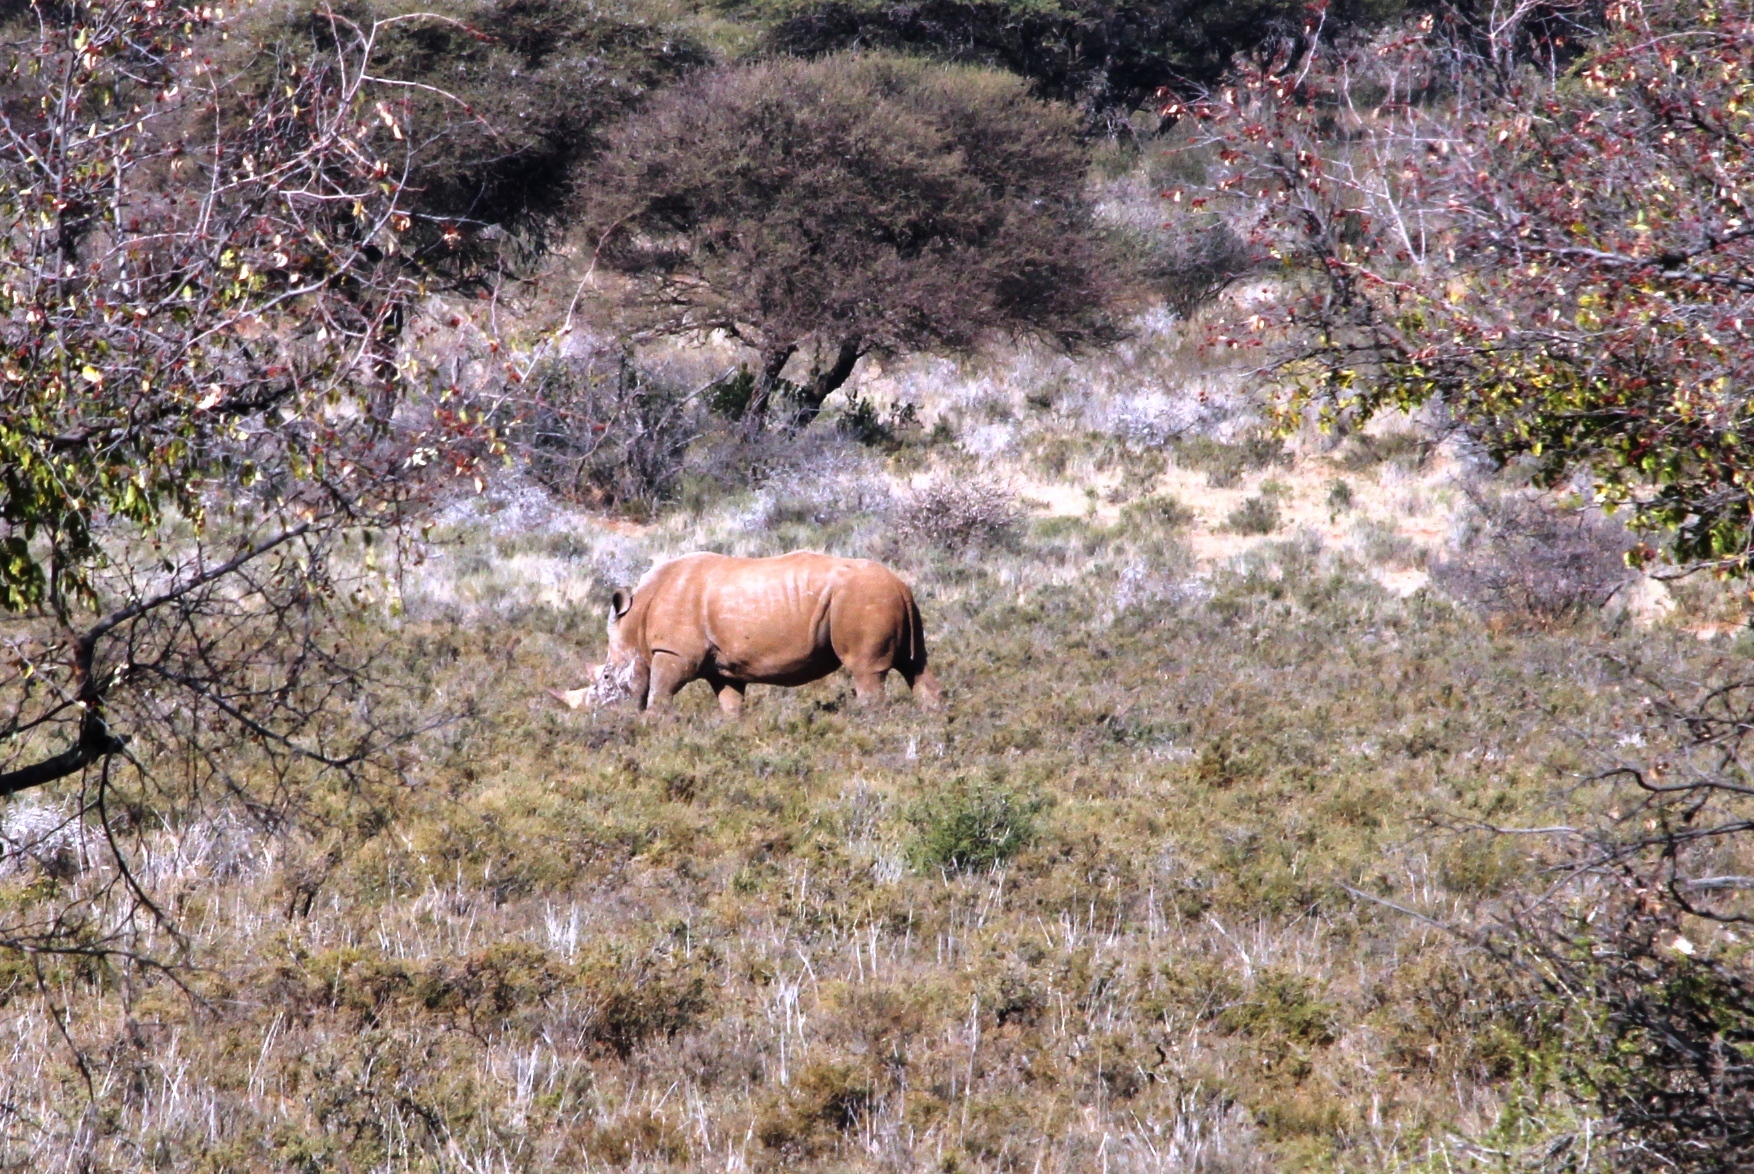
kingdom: Animalia
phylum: Chordata
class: Mammalia
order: Perissodactyla
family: Rhinocerotidae
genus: Ceratotherium
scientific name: Ceratotherium simum
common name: White rhinoceros
